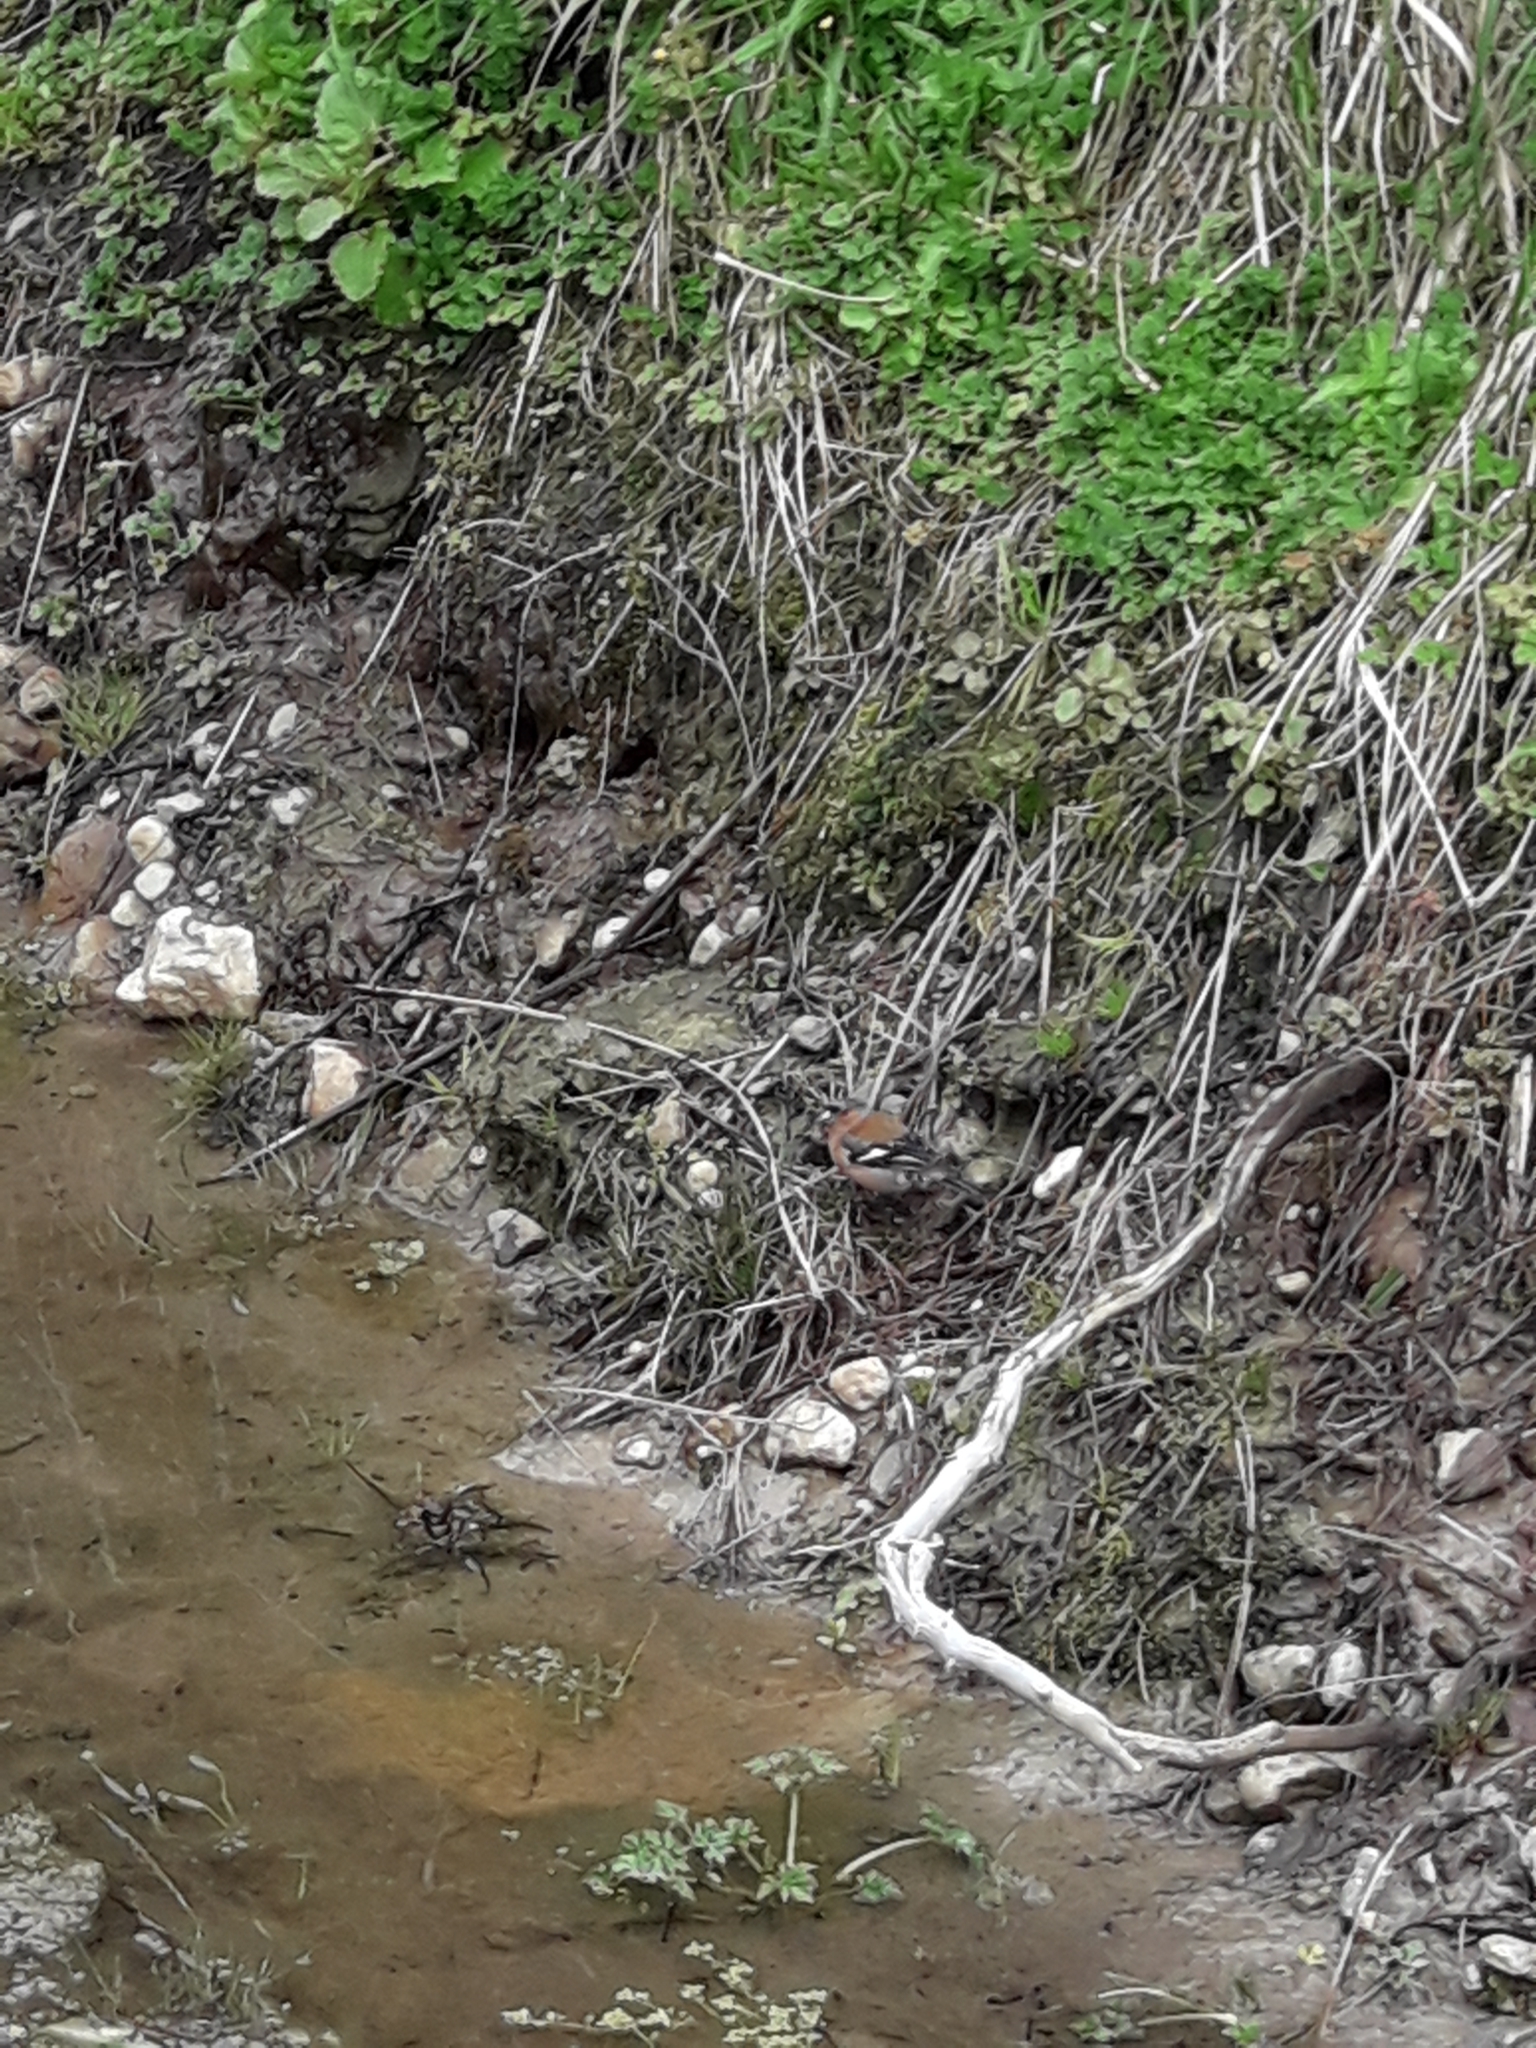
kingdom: Animalia
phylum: Chordata
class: Aves
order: Passeriformes
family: Fringillidae
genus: Fringilla
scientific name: Fringilla coelebs
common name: Common chaffinch
